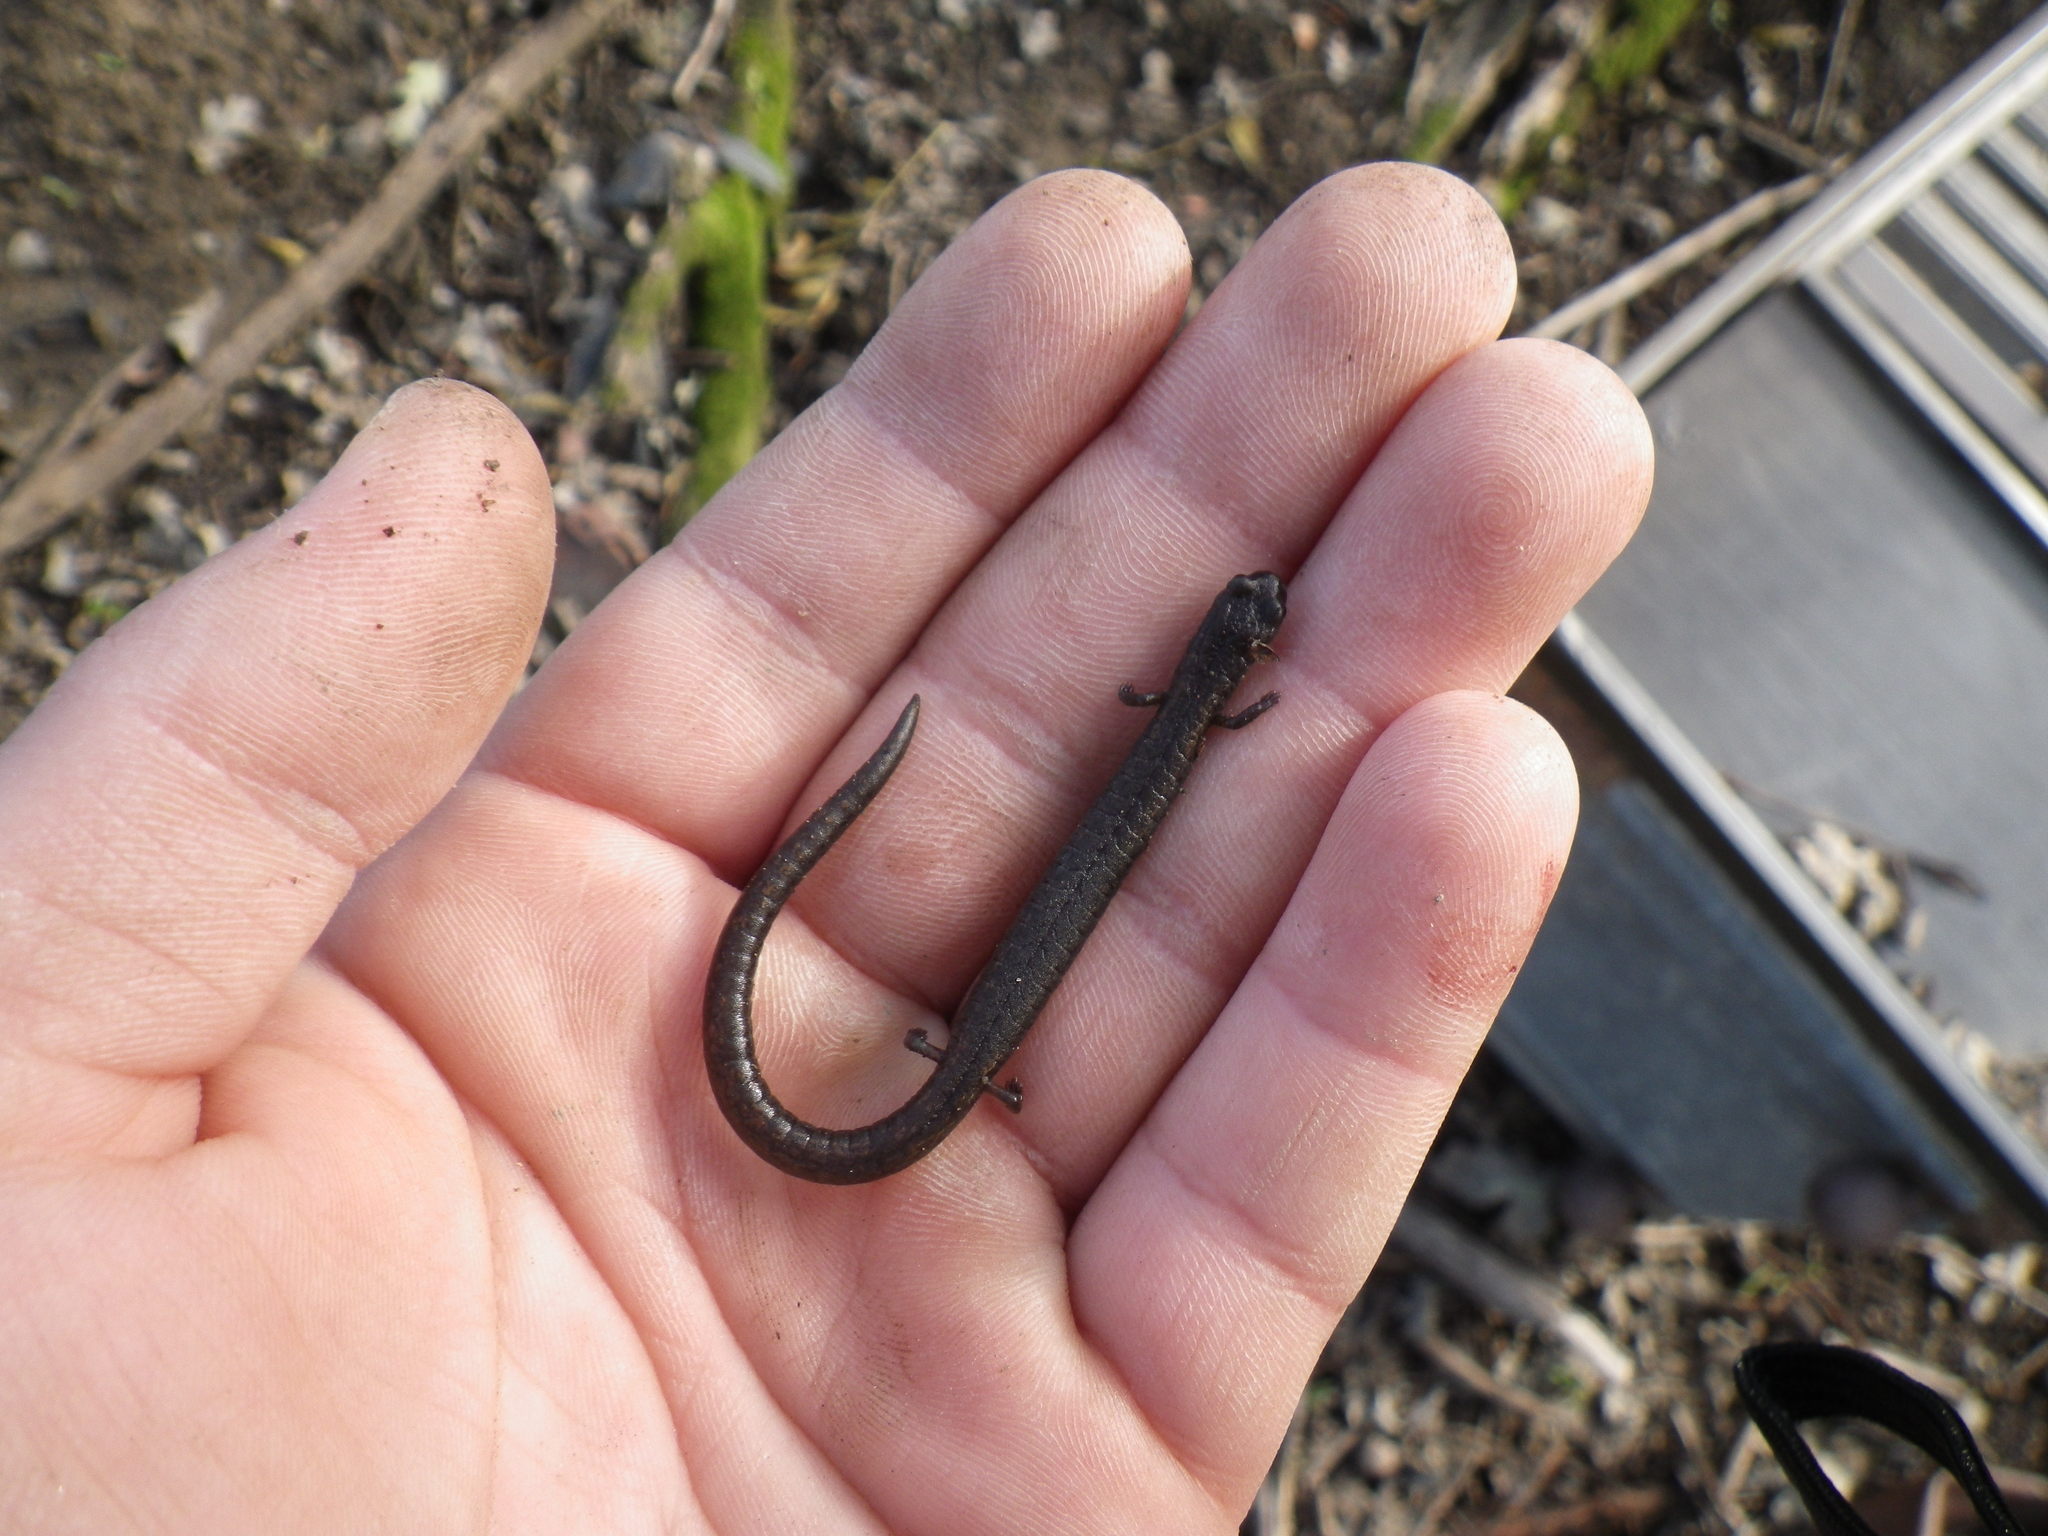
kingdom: Animalia
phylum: Chordata
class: Amphibia
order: Caudata
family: Plethodontidae
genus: Batrachoseps
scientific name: Batrachoseps attenuatus
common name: California slender salamander
